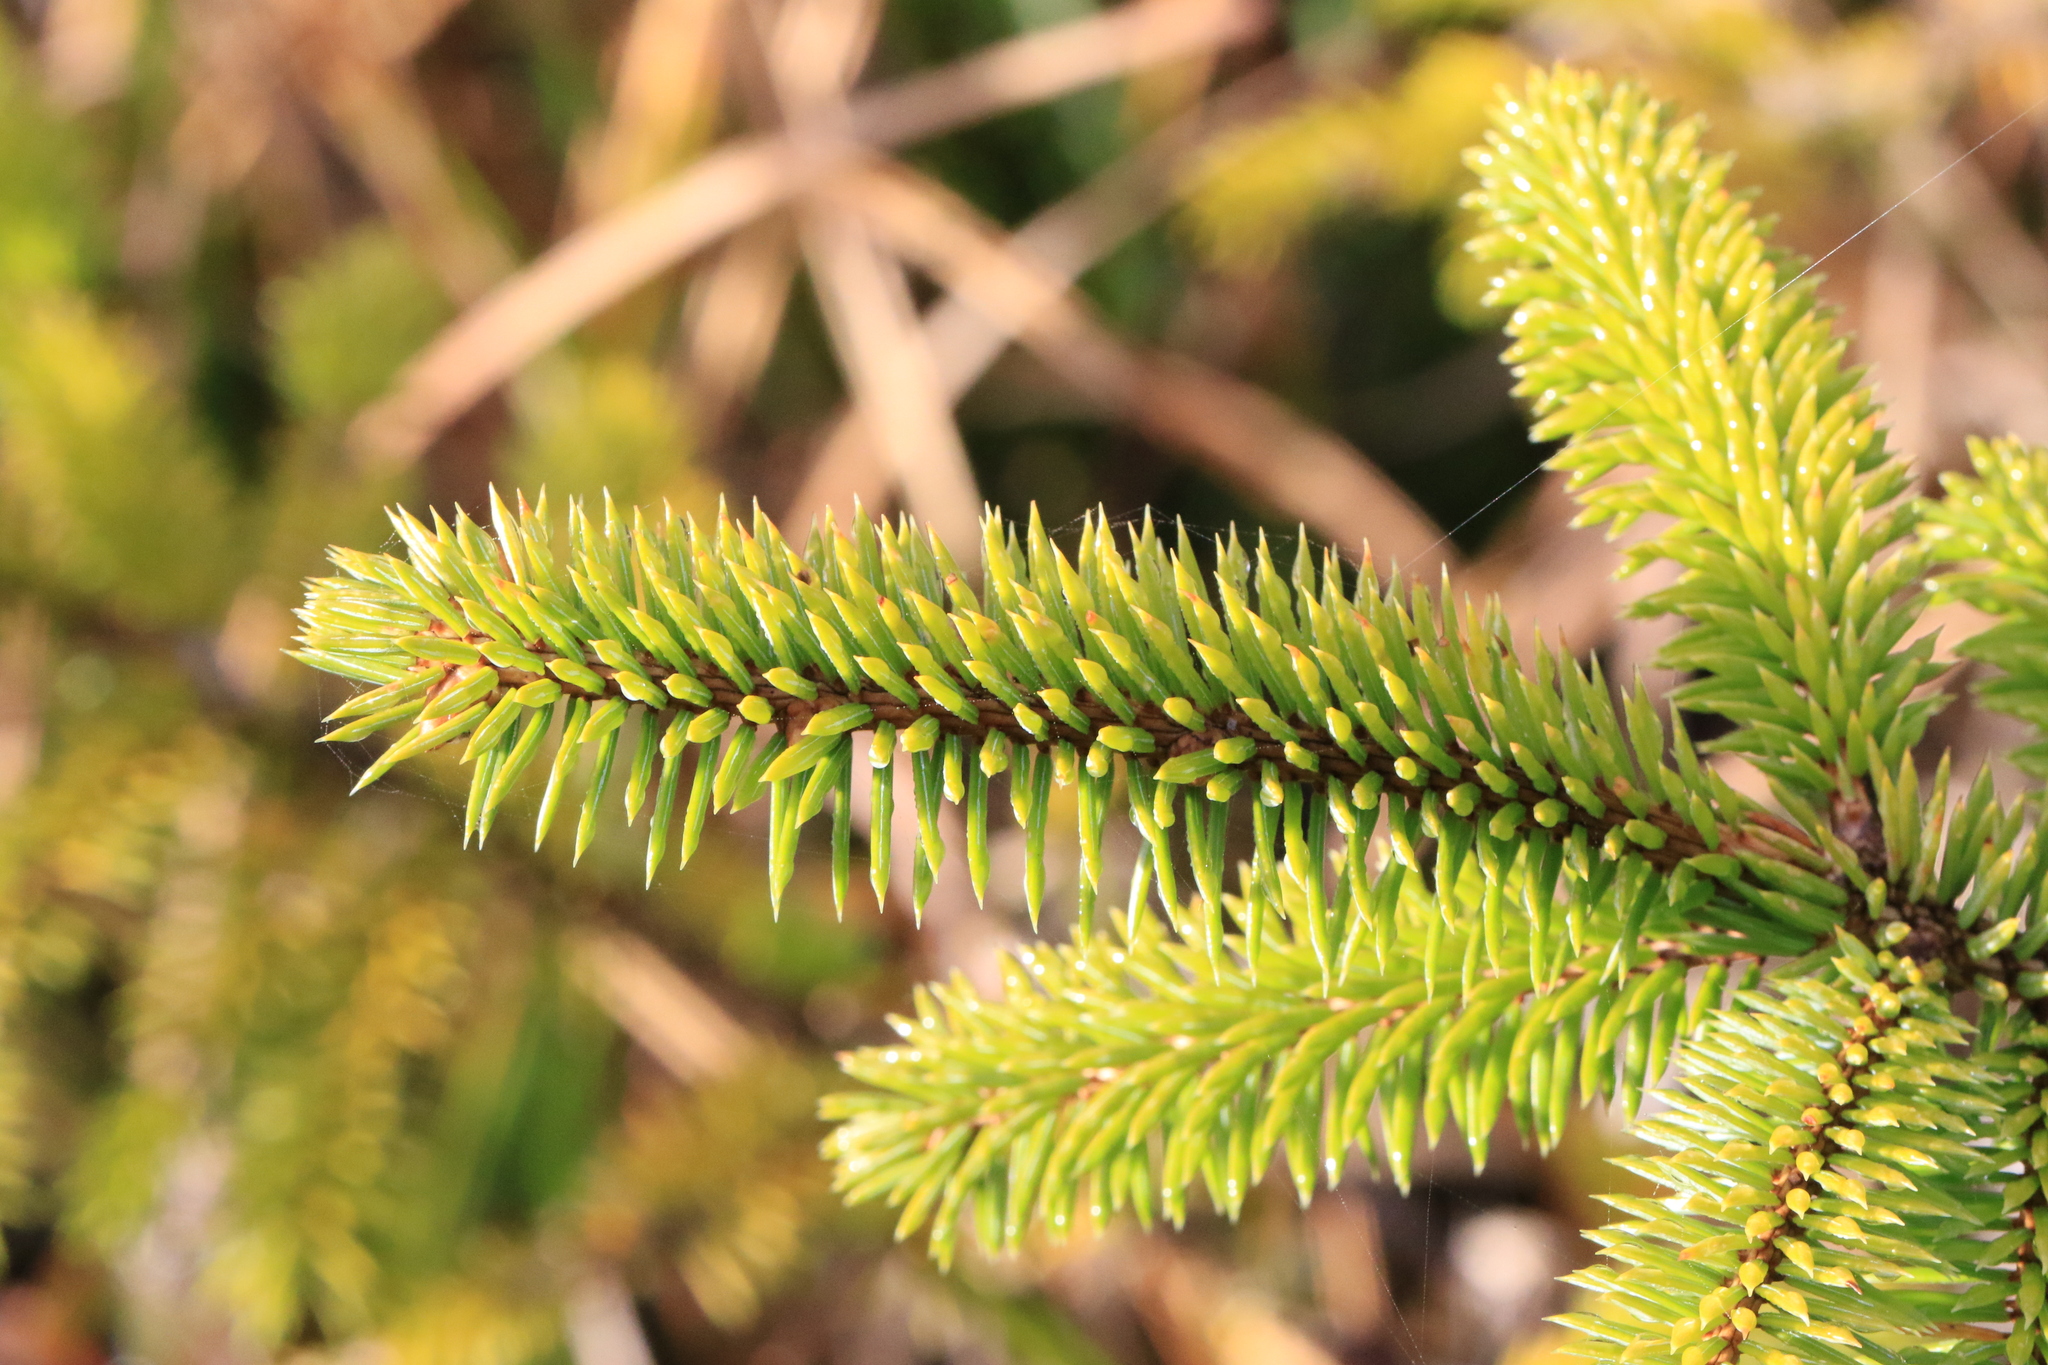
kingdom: Plantae
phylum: Tracheophyta
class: Pinopsida
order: Pinales
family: Pinaceae
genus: Picea
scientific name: Picea sitchensis
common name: Sitka spruce
